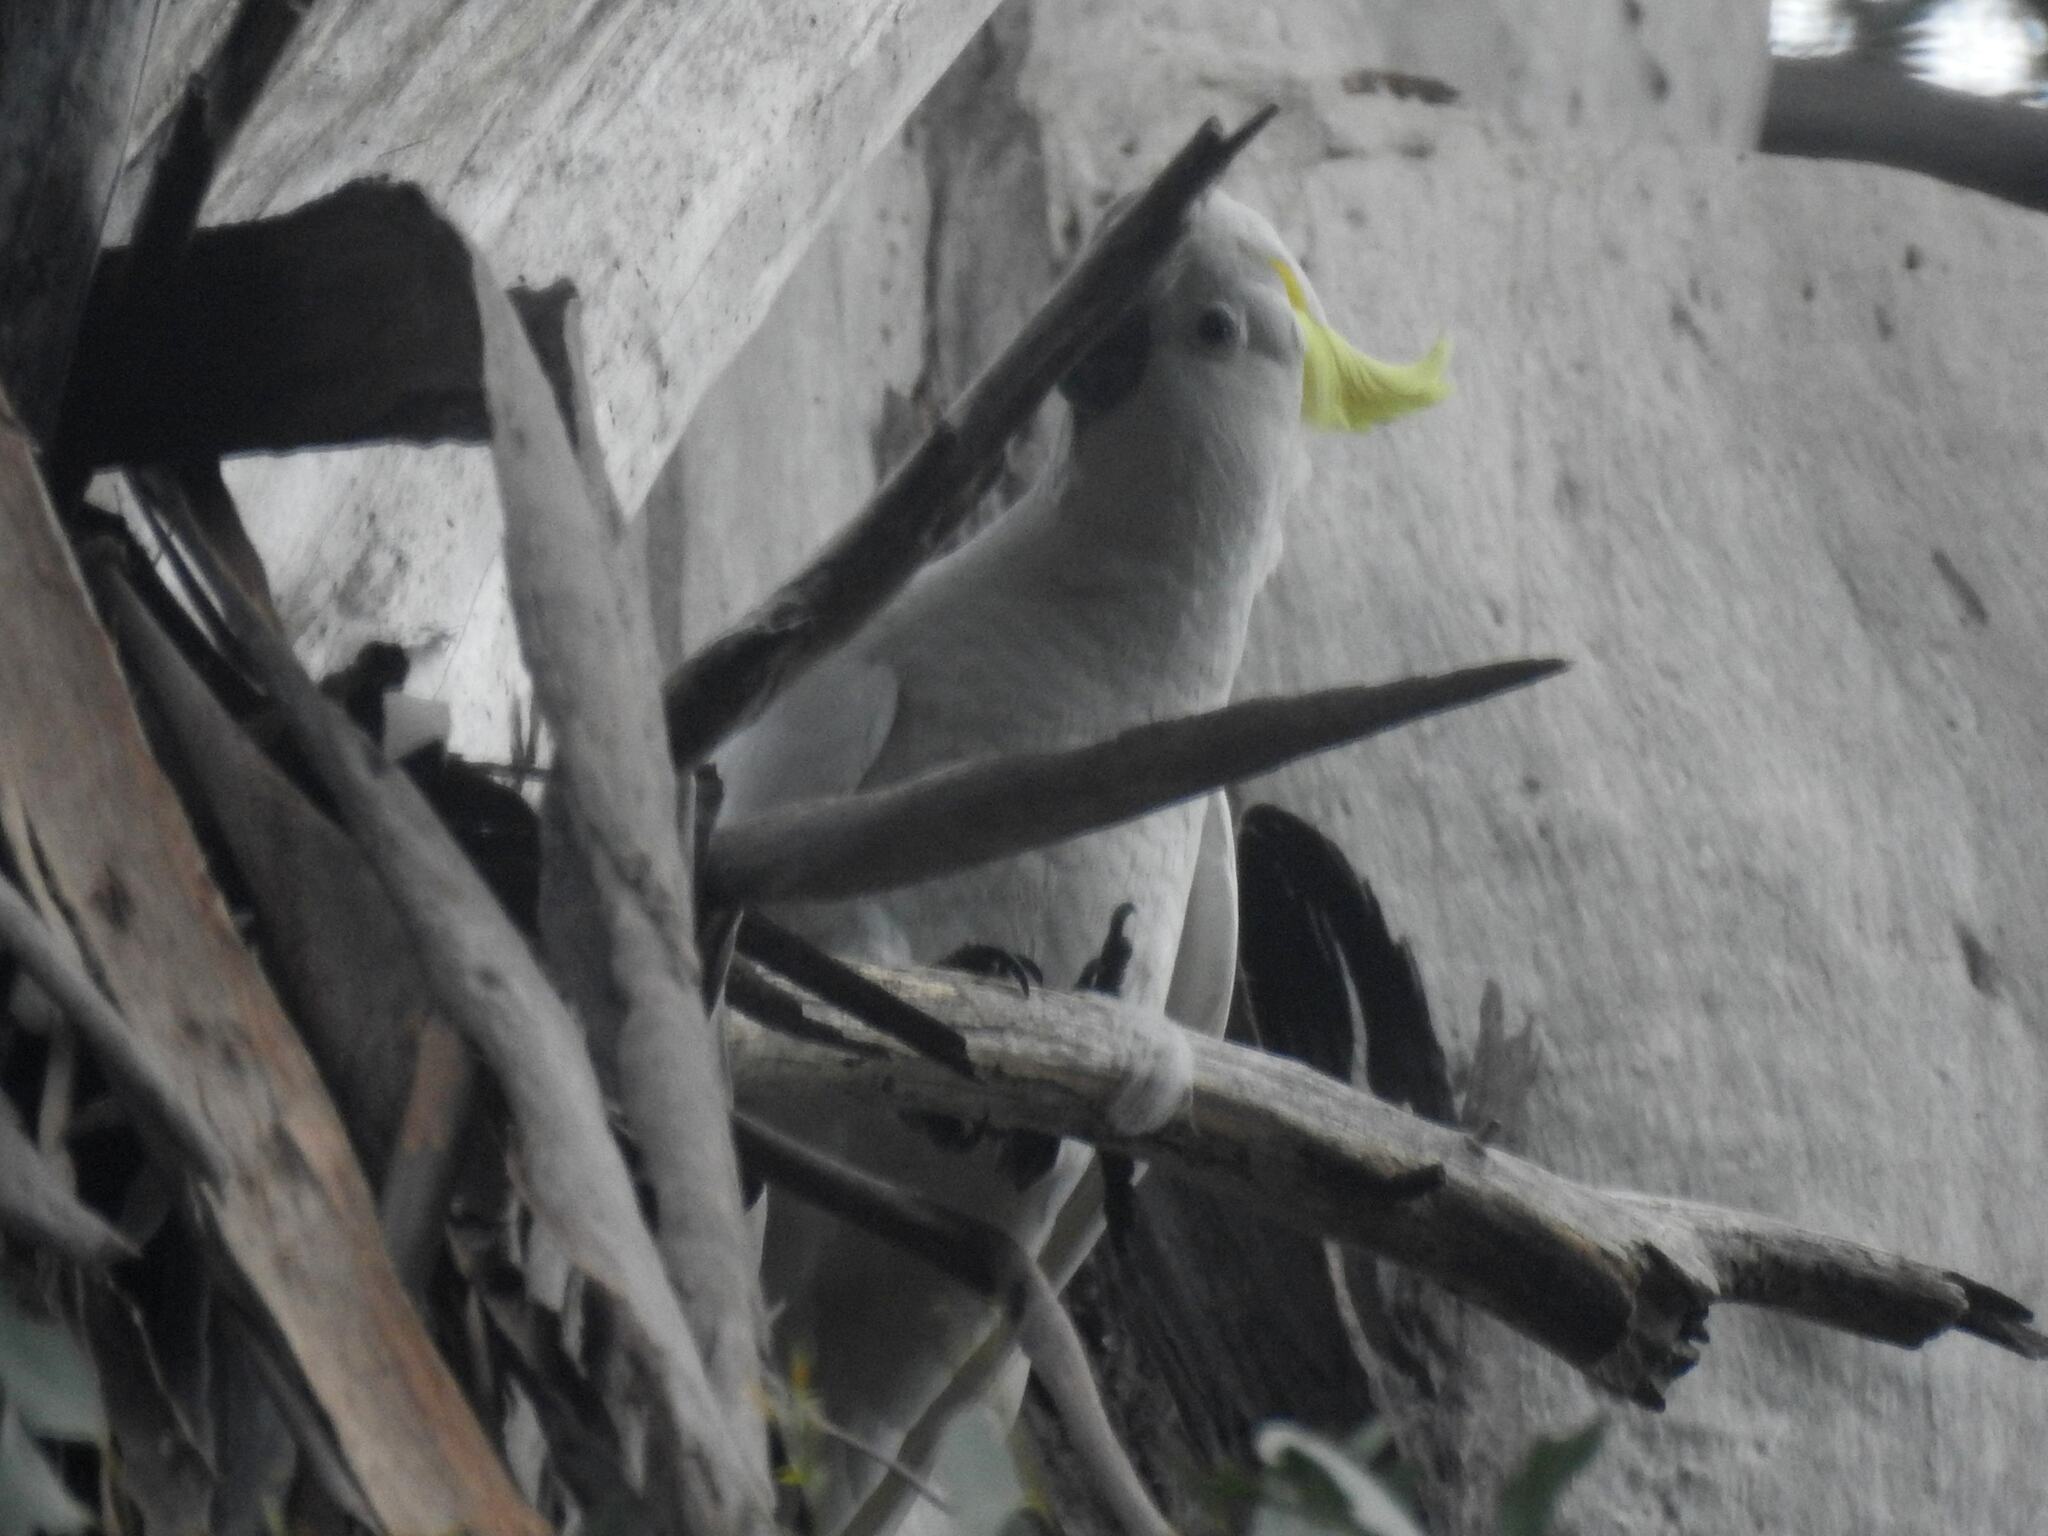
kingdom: Animalia
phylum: Chordata
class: Aves
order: Psittaciformes
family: Psittacidae
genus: Cacatua
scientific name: Cacatua galerita
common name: Sulphur-crested cockatoo
